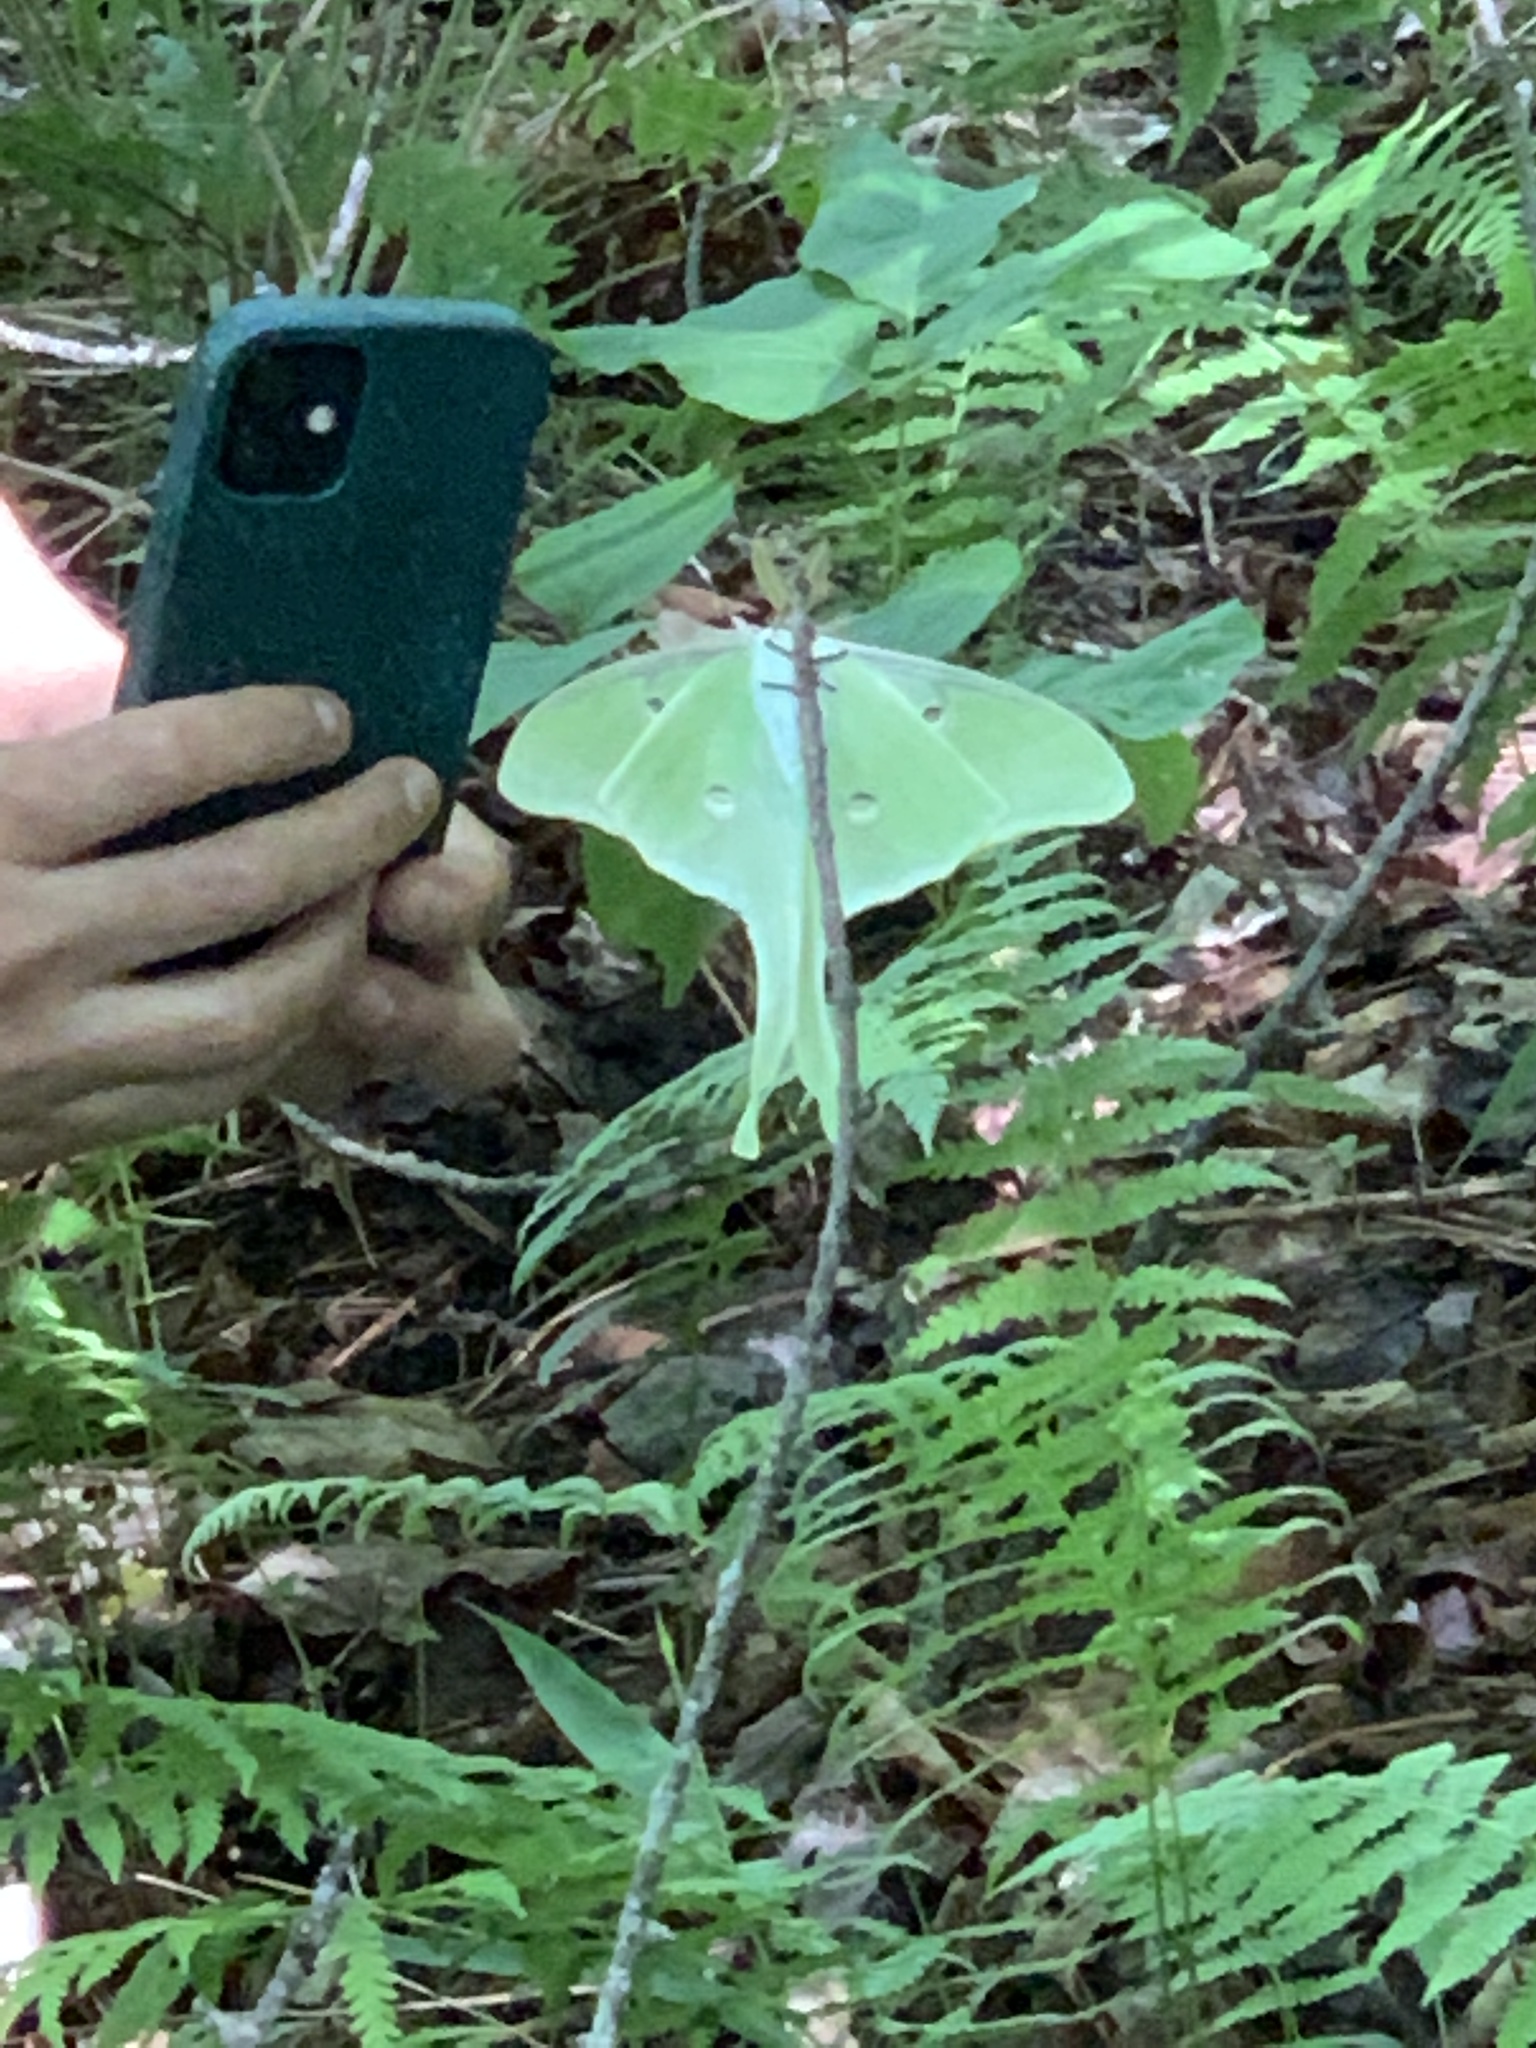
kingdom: Animalia
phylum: Arthropoda
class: Insecta
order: Lepidoptera
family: Saturniidae
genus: Actias
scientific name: Actias luna
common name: Luna moth
